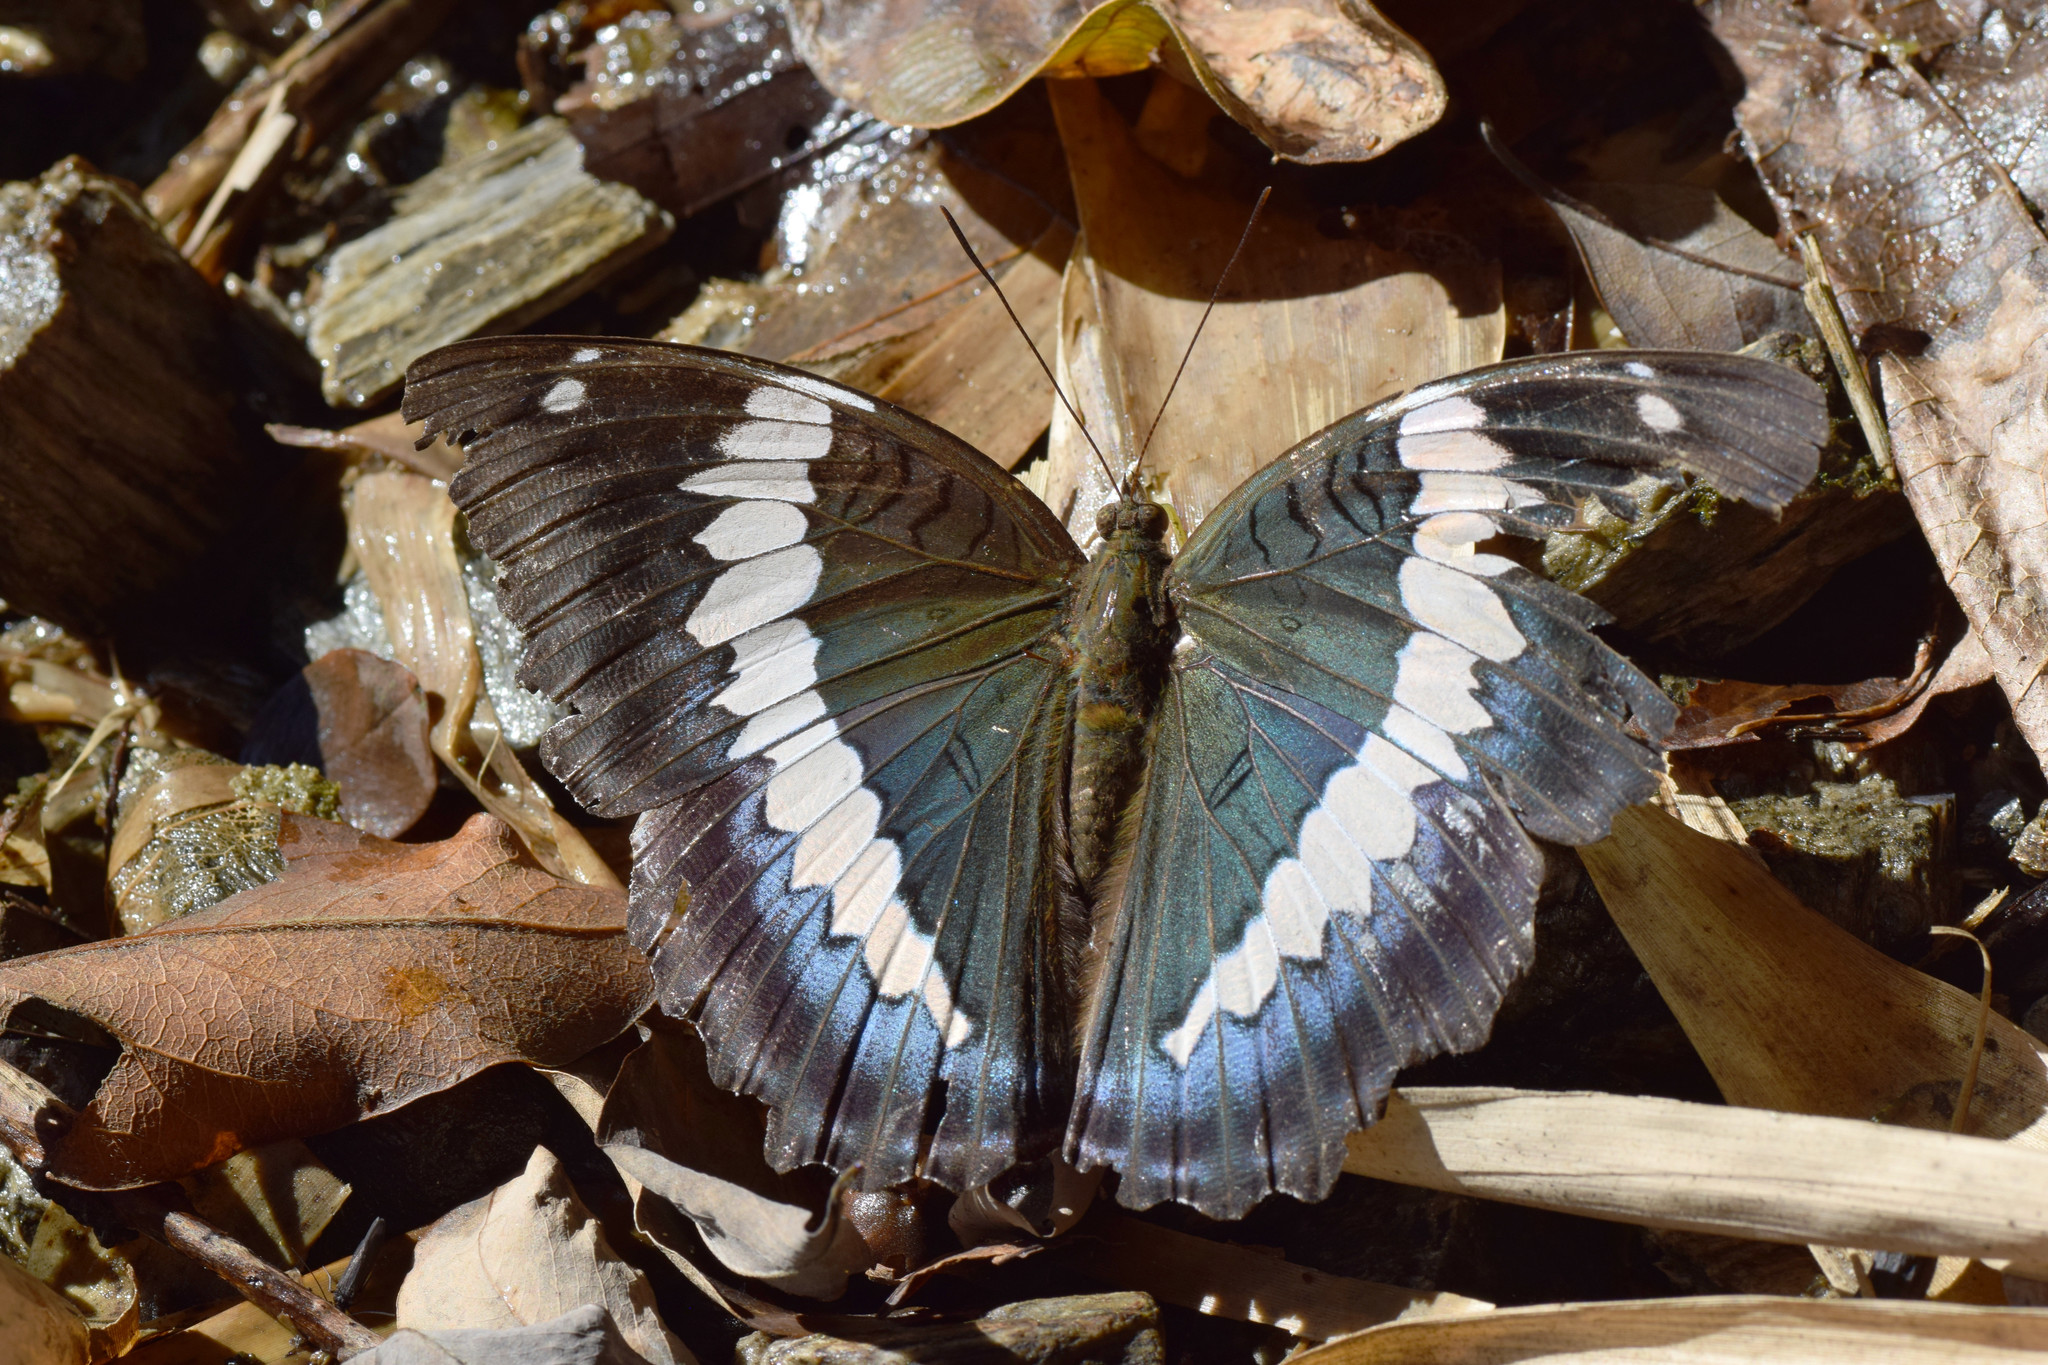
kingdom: Animalia
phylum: Arthropoda
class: Insecta
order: Lepidoptera
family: Nymphalidae
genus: Euthalia
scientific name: Euthalia durga
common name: Blue duke
